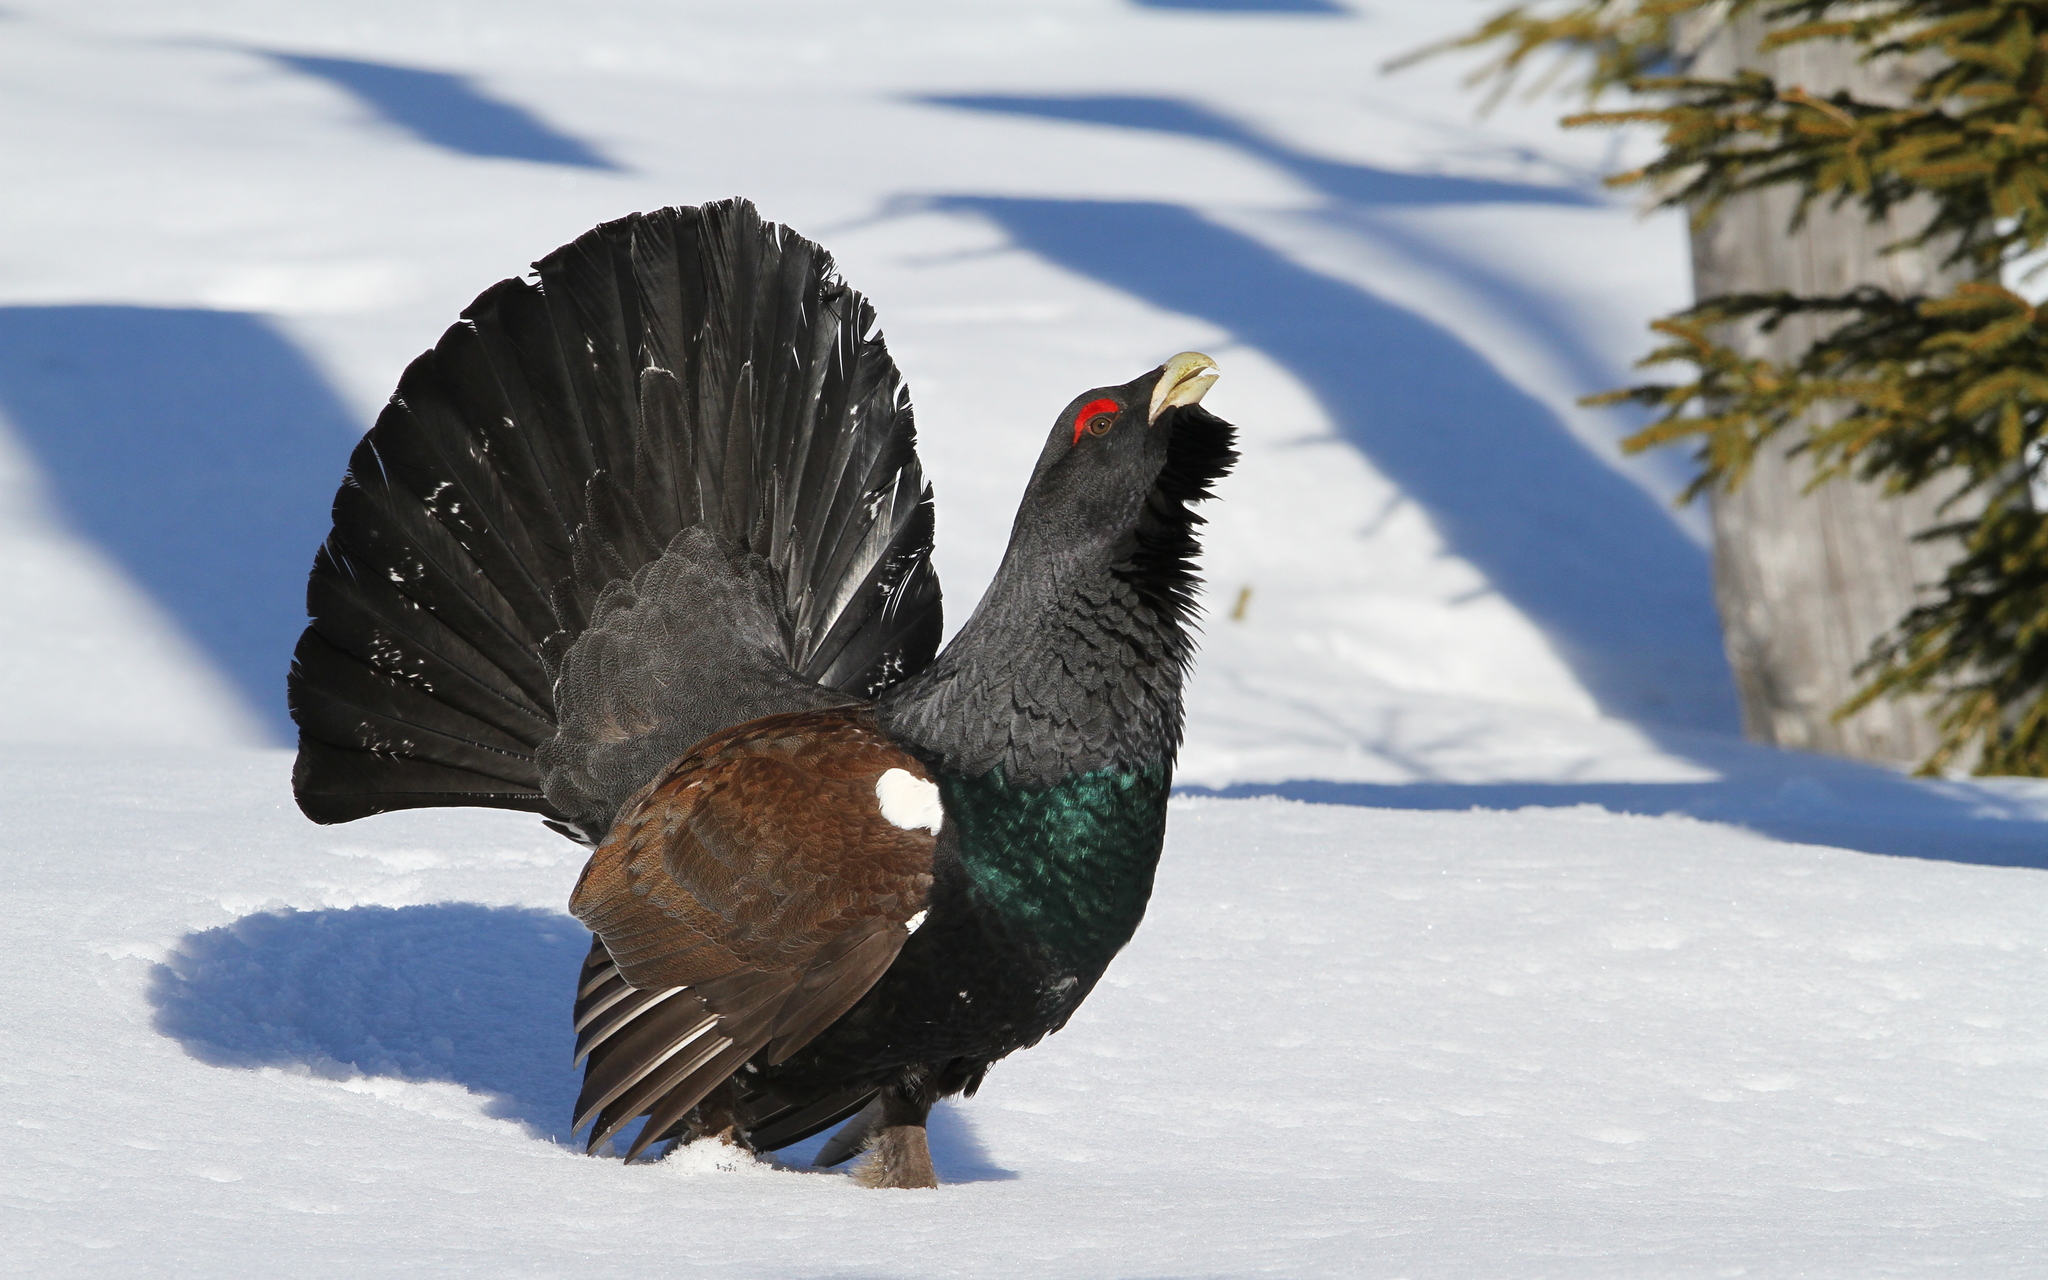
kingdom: Animalia
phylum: Chordata
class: Aves
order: Galliformes
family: Phasianidae
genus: Tetrao
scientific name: Tetrao urogallus
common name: Western capercaillie
